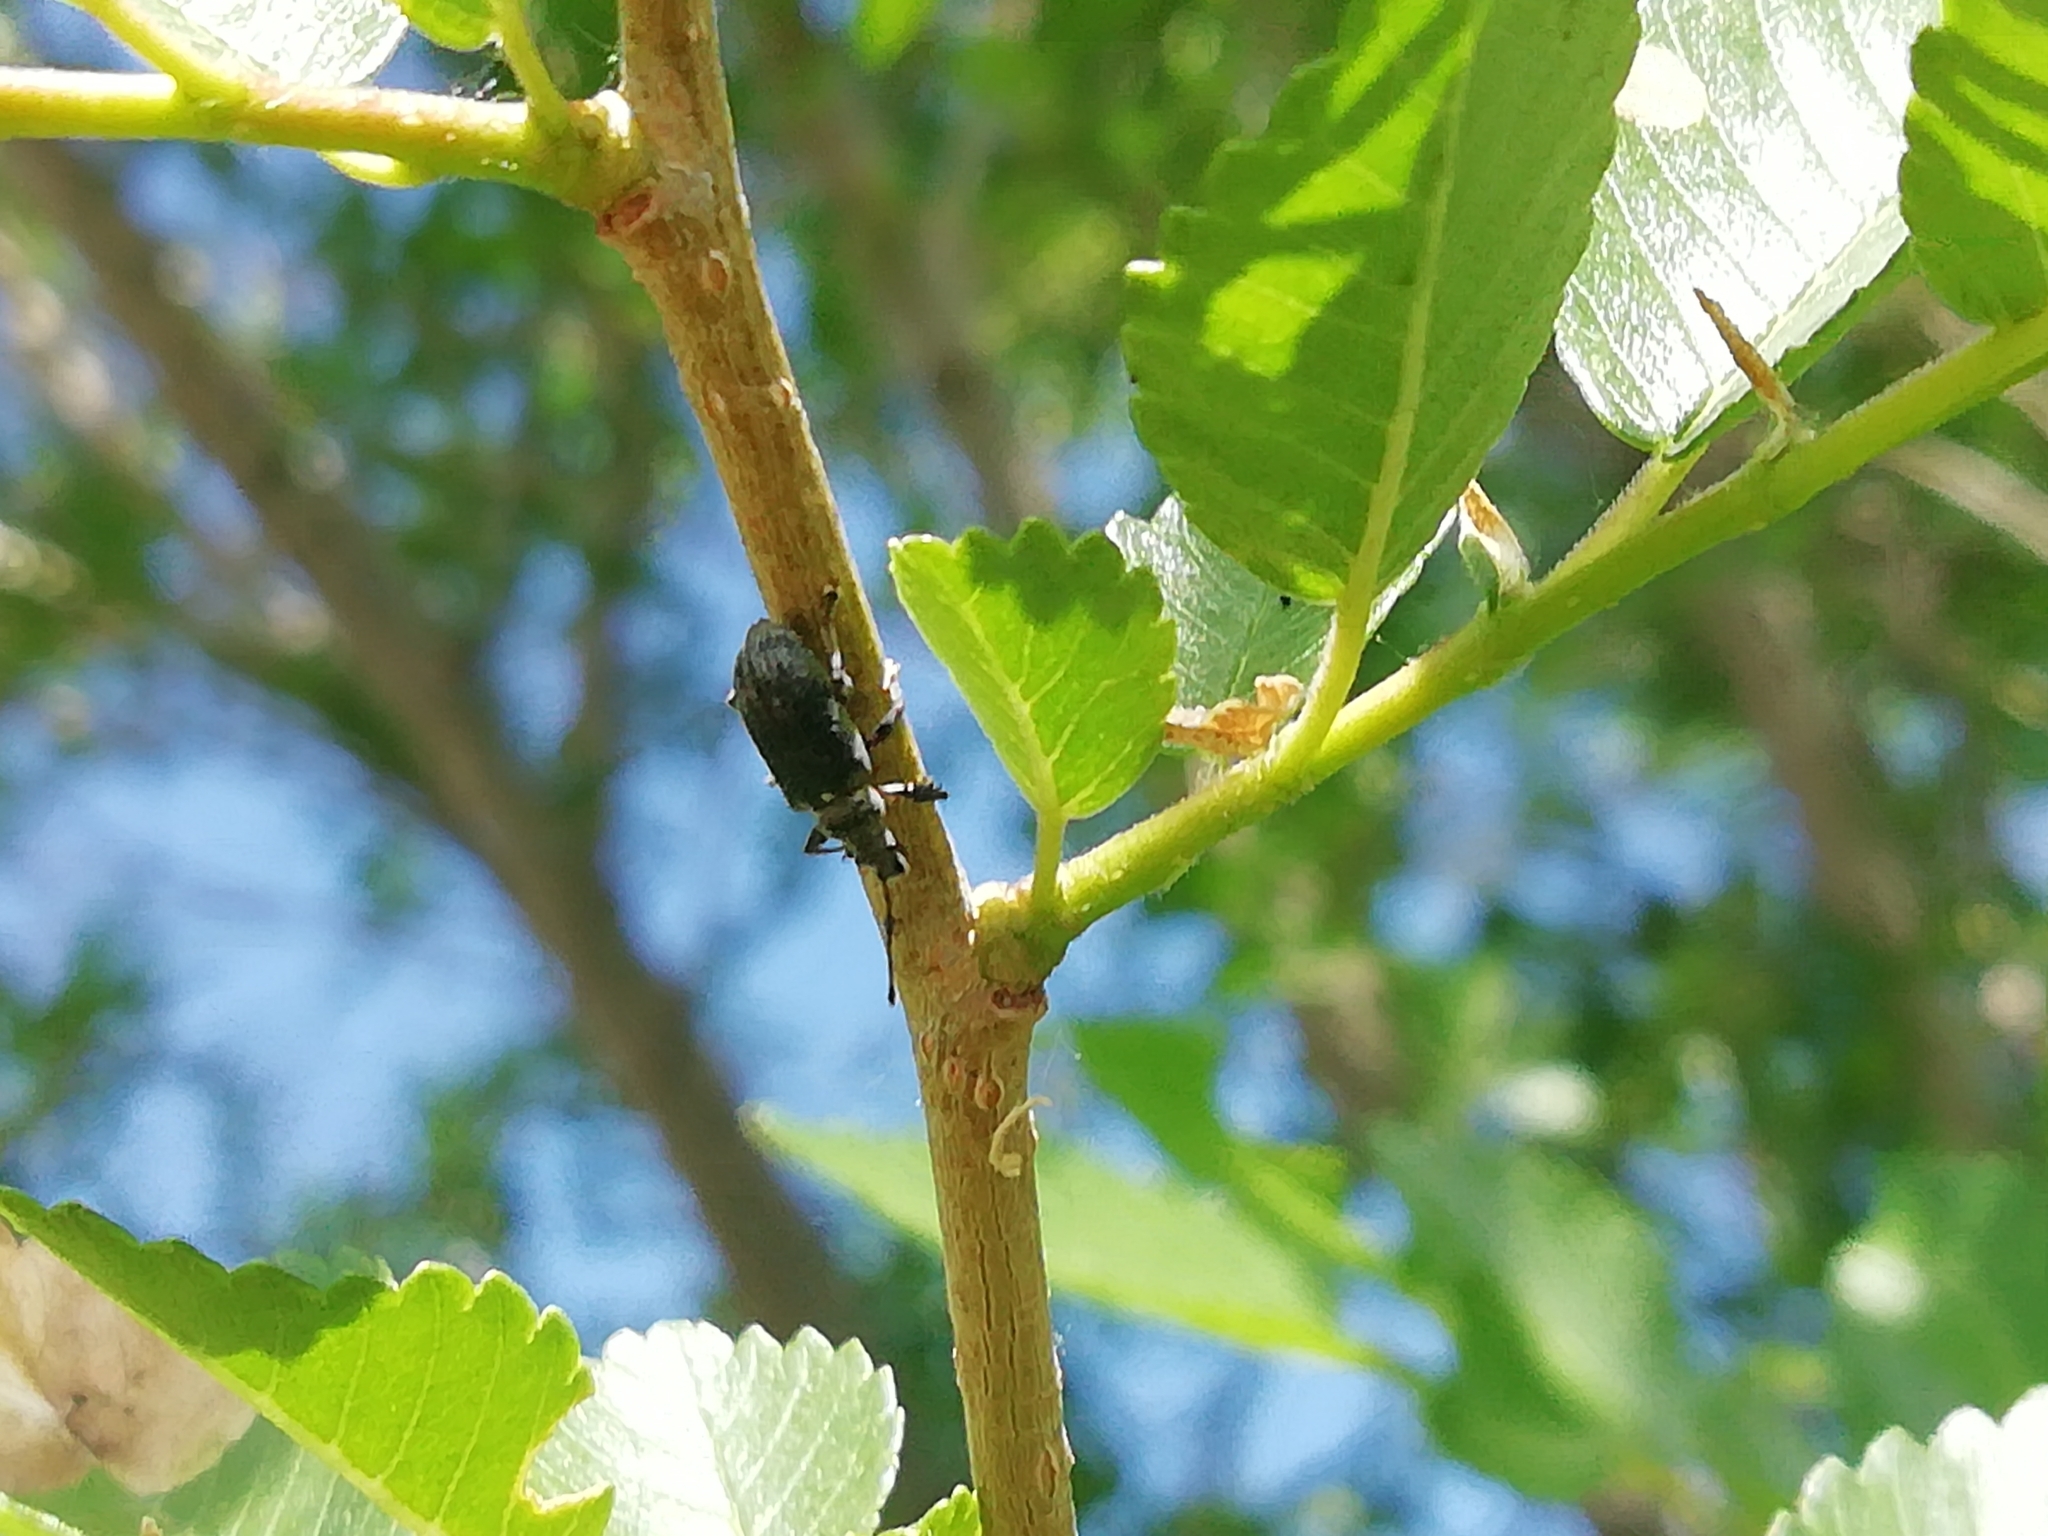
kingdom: Animalia
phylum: Arthropoda
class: Insecta
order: Coleoptera
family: Curculionidae
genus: Phyllobius
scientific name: Phyllobius pyri
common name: Common leaf weevil
